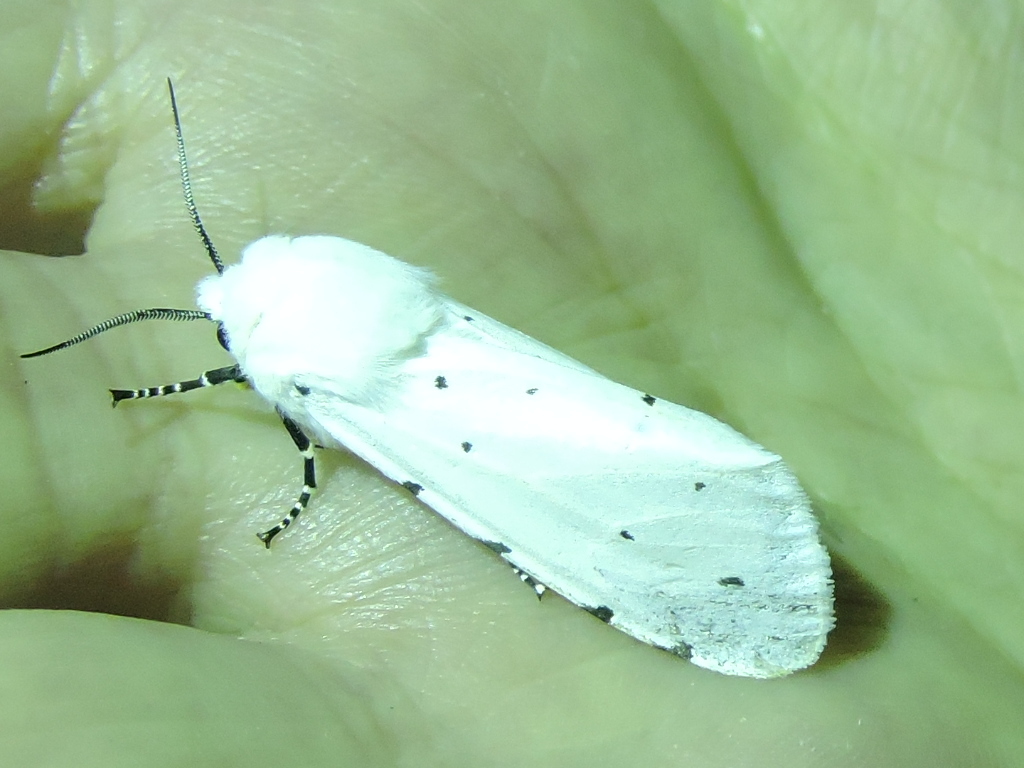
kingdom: Animalia
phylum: Arthropoda
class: Insecta
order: Lepidoptera
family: Erebidae
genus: Estigmene
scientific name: Estigmene acrea
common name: Salt marsh moth
